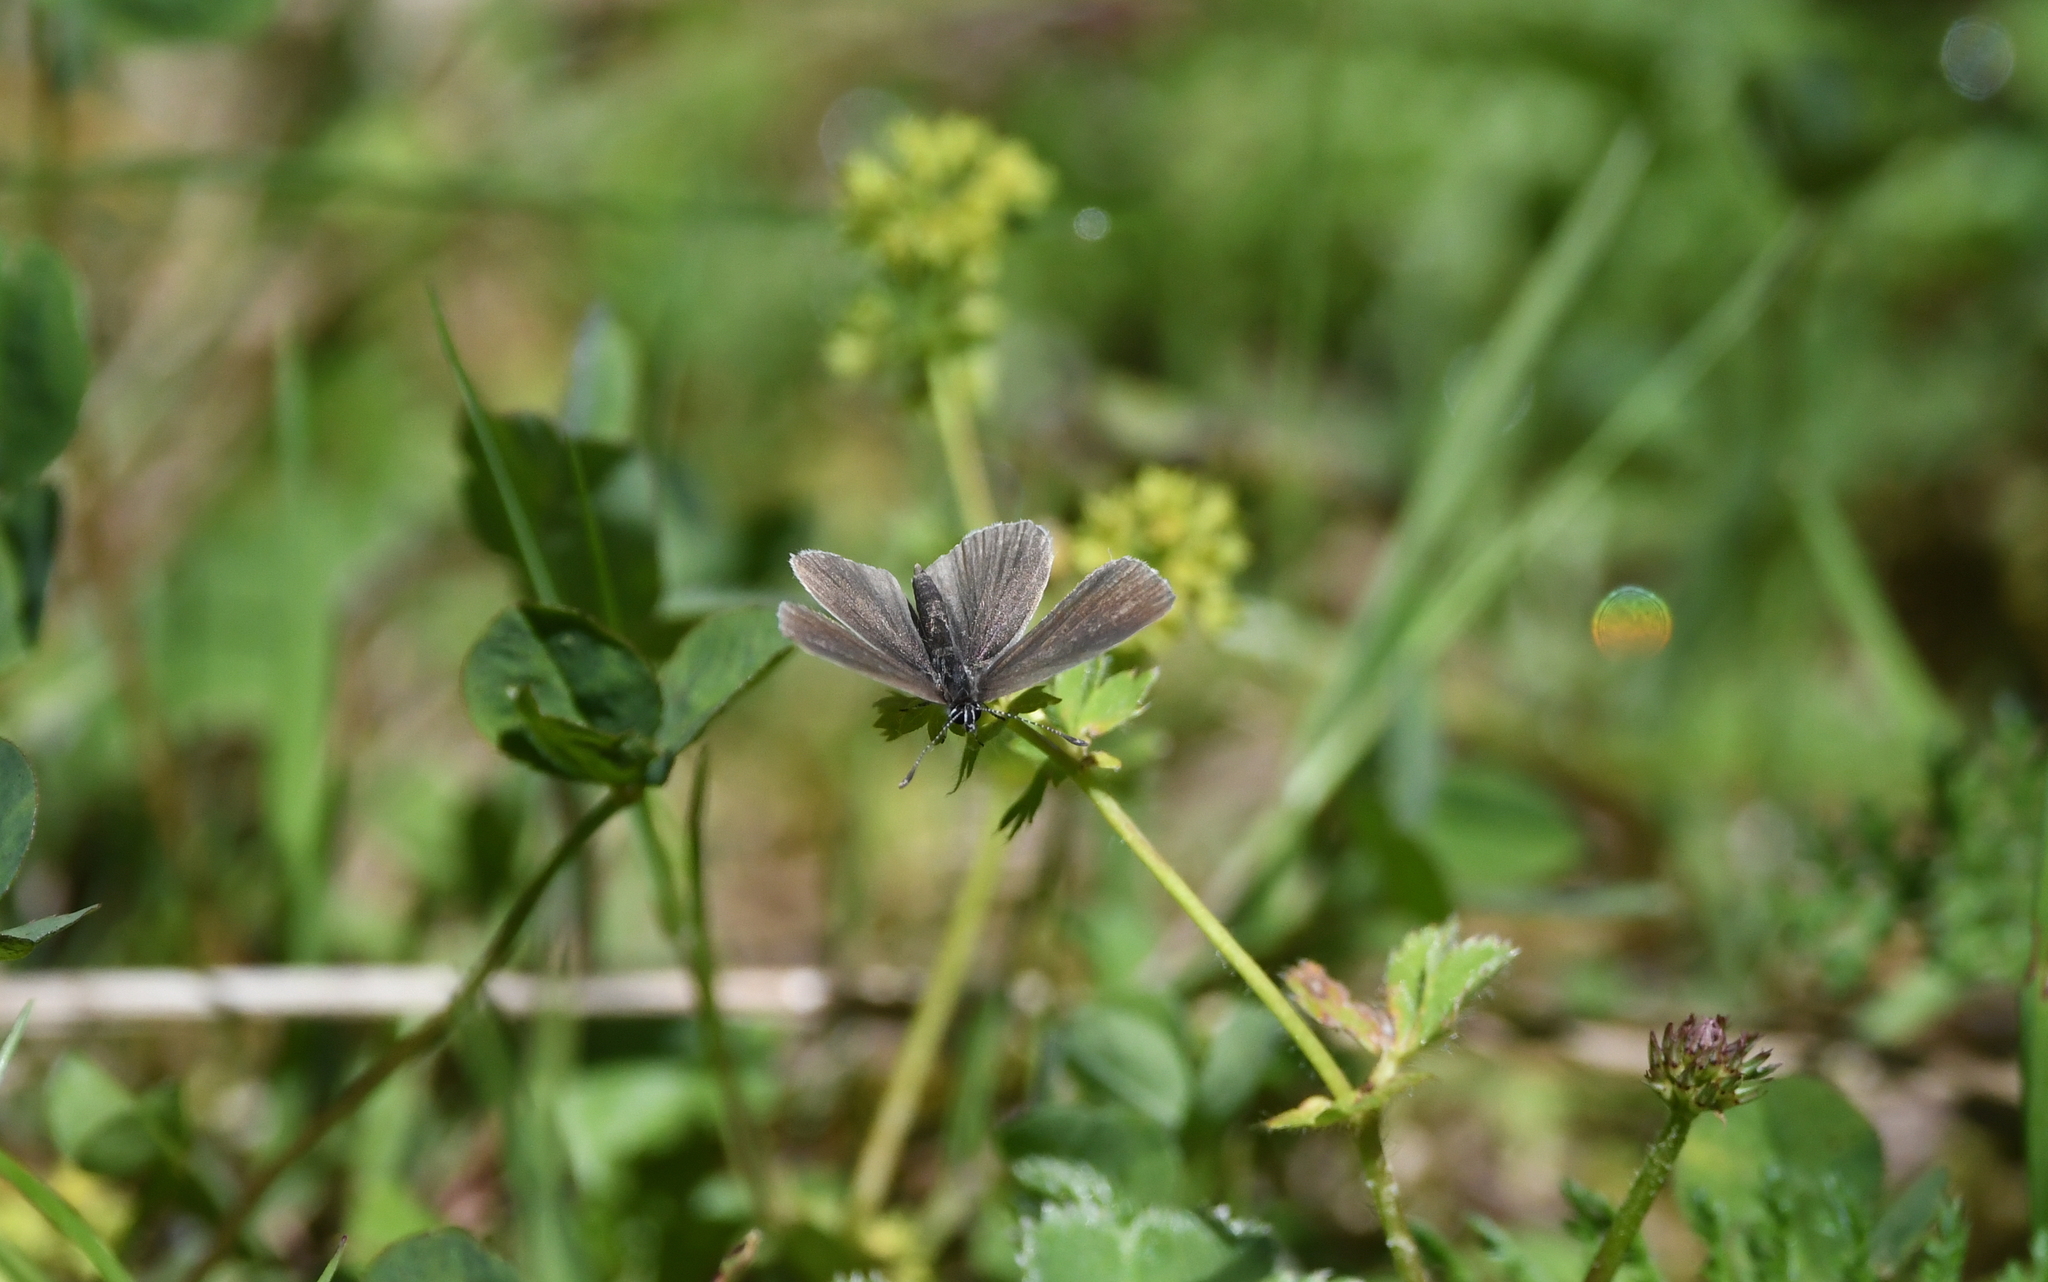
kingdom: Animalia
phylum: Arthropoda
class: Insecta
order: Lepidoptera
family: Lycaenidae
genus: Cupido
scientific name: Cupido minimus
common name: Small blue
